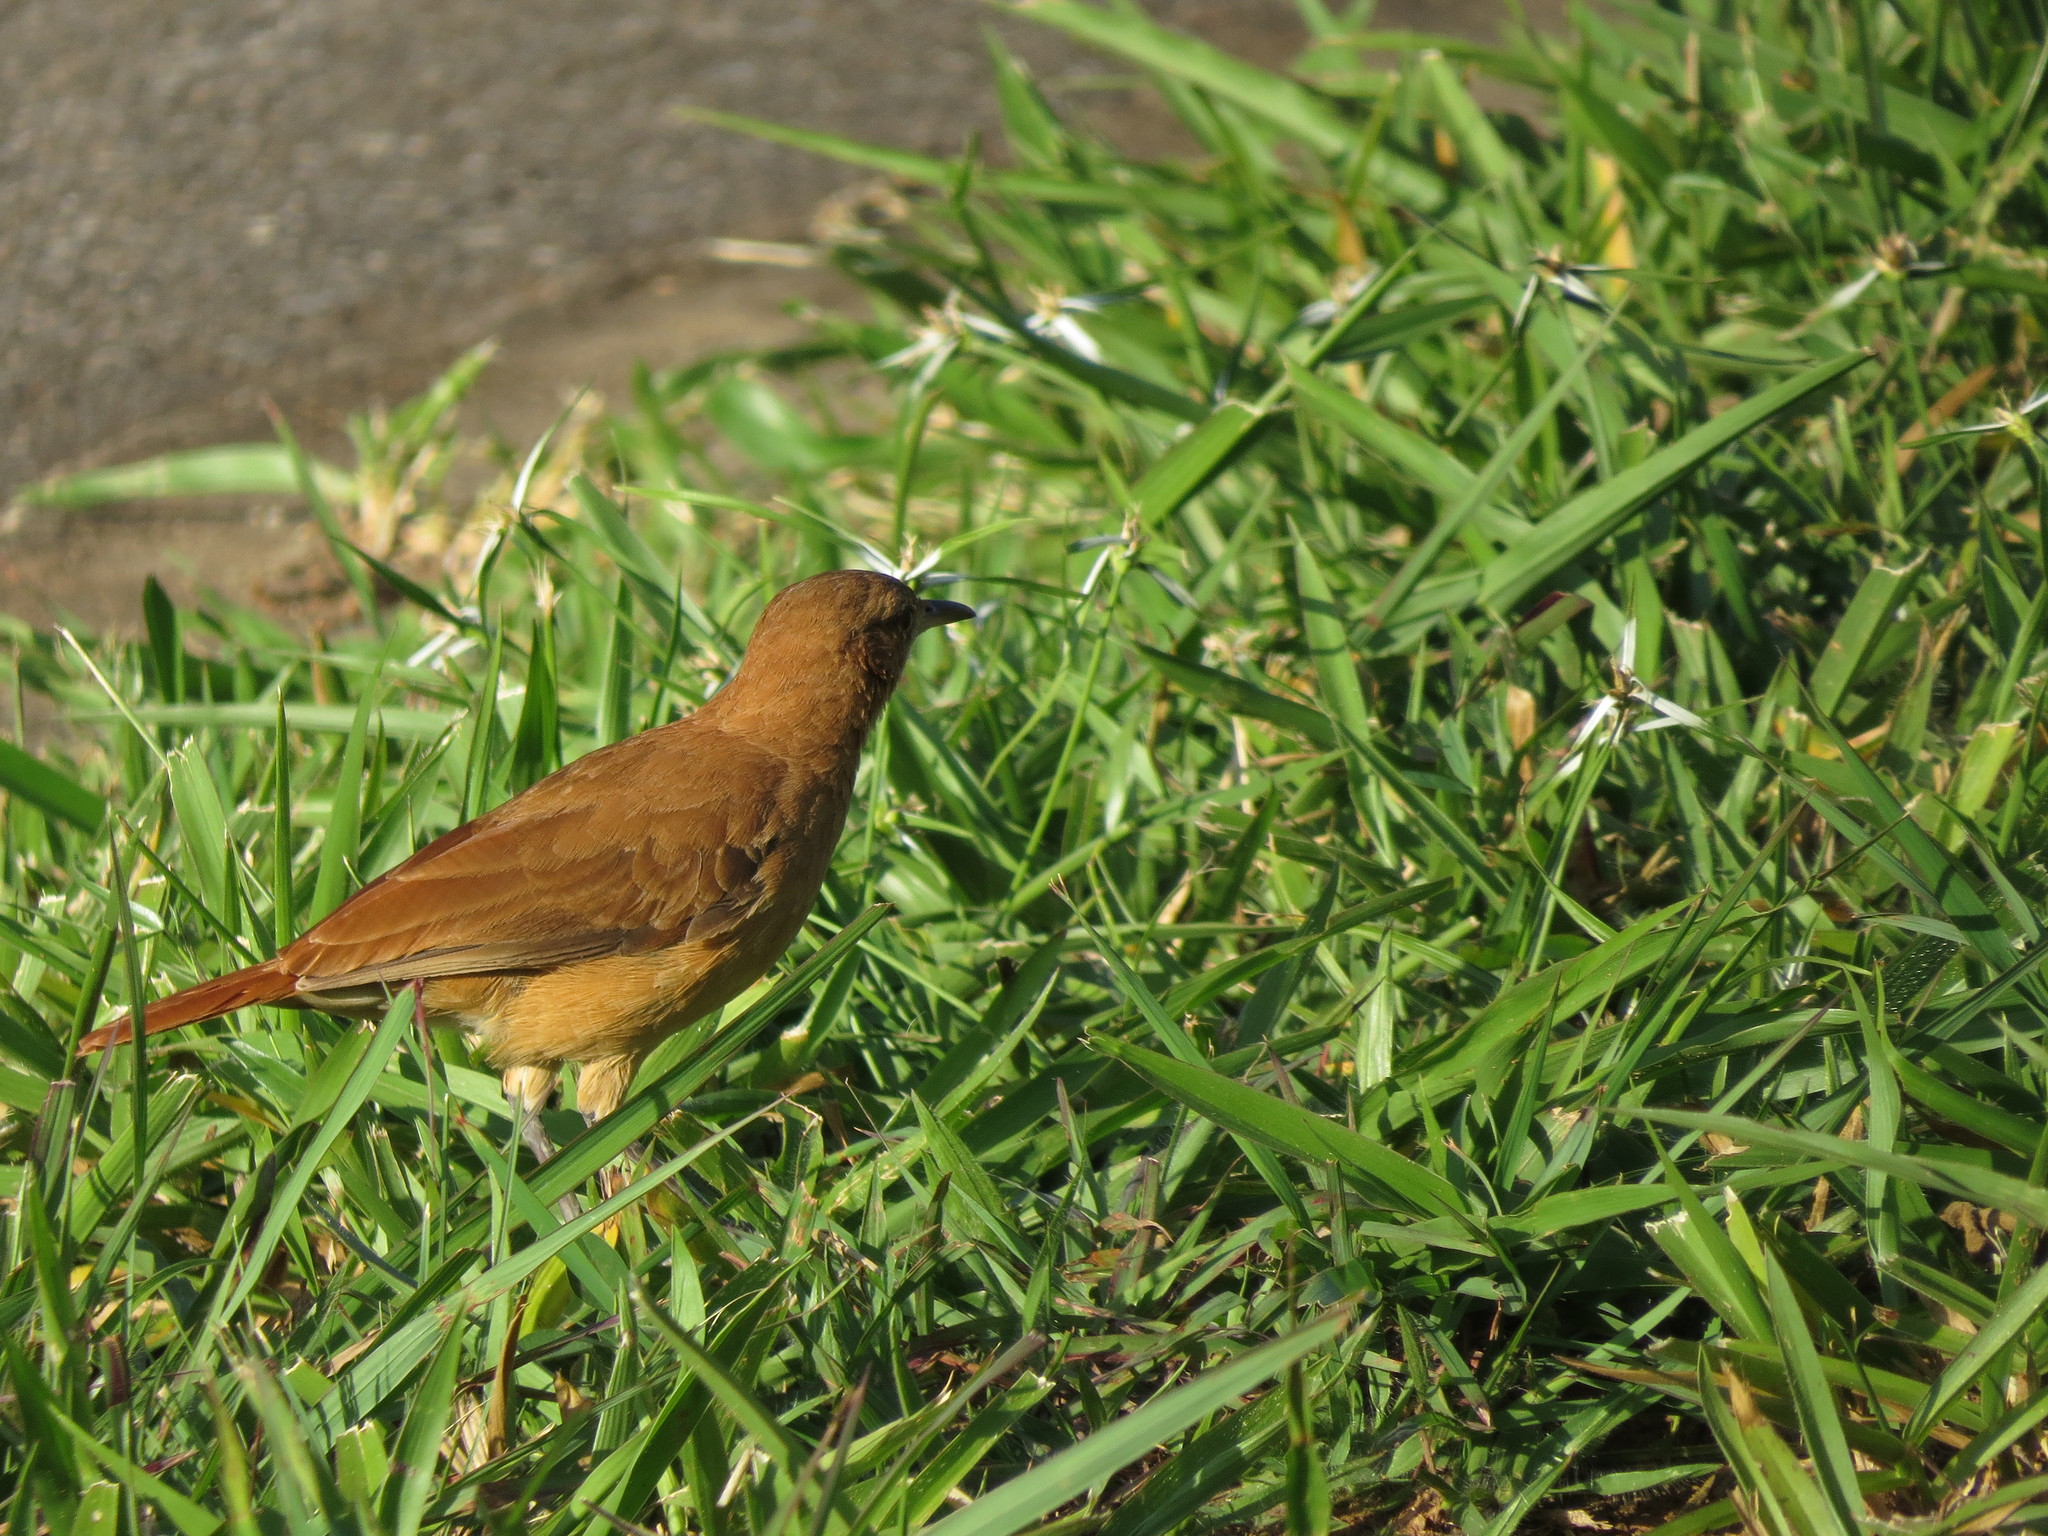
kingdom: Animalia
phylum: Chordata
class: Aves
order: Passeriformes
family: Furnariidae
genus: Furnarius
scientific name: Furnarius rufus
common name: Rufous hornero
